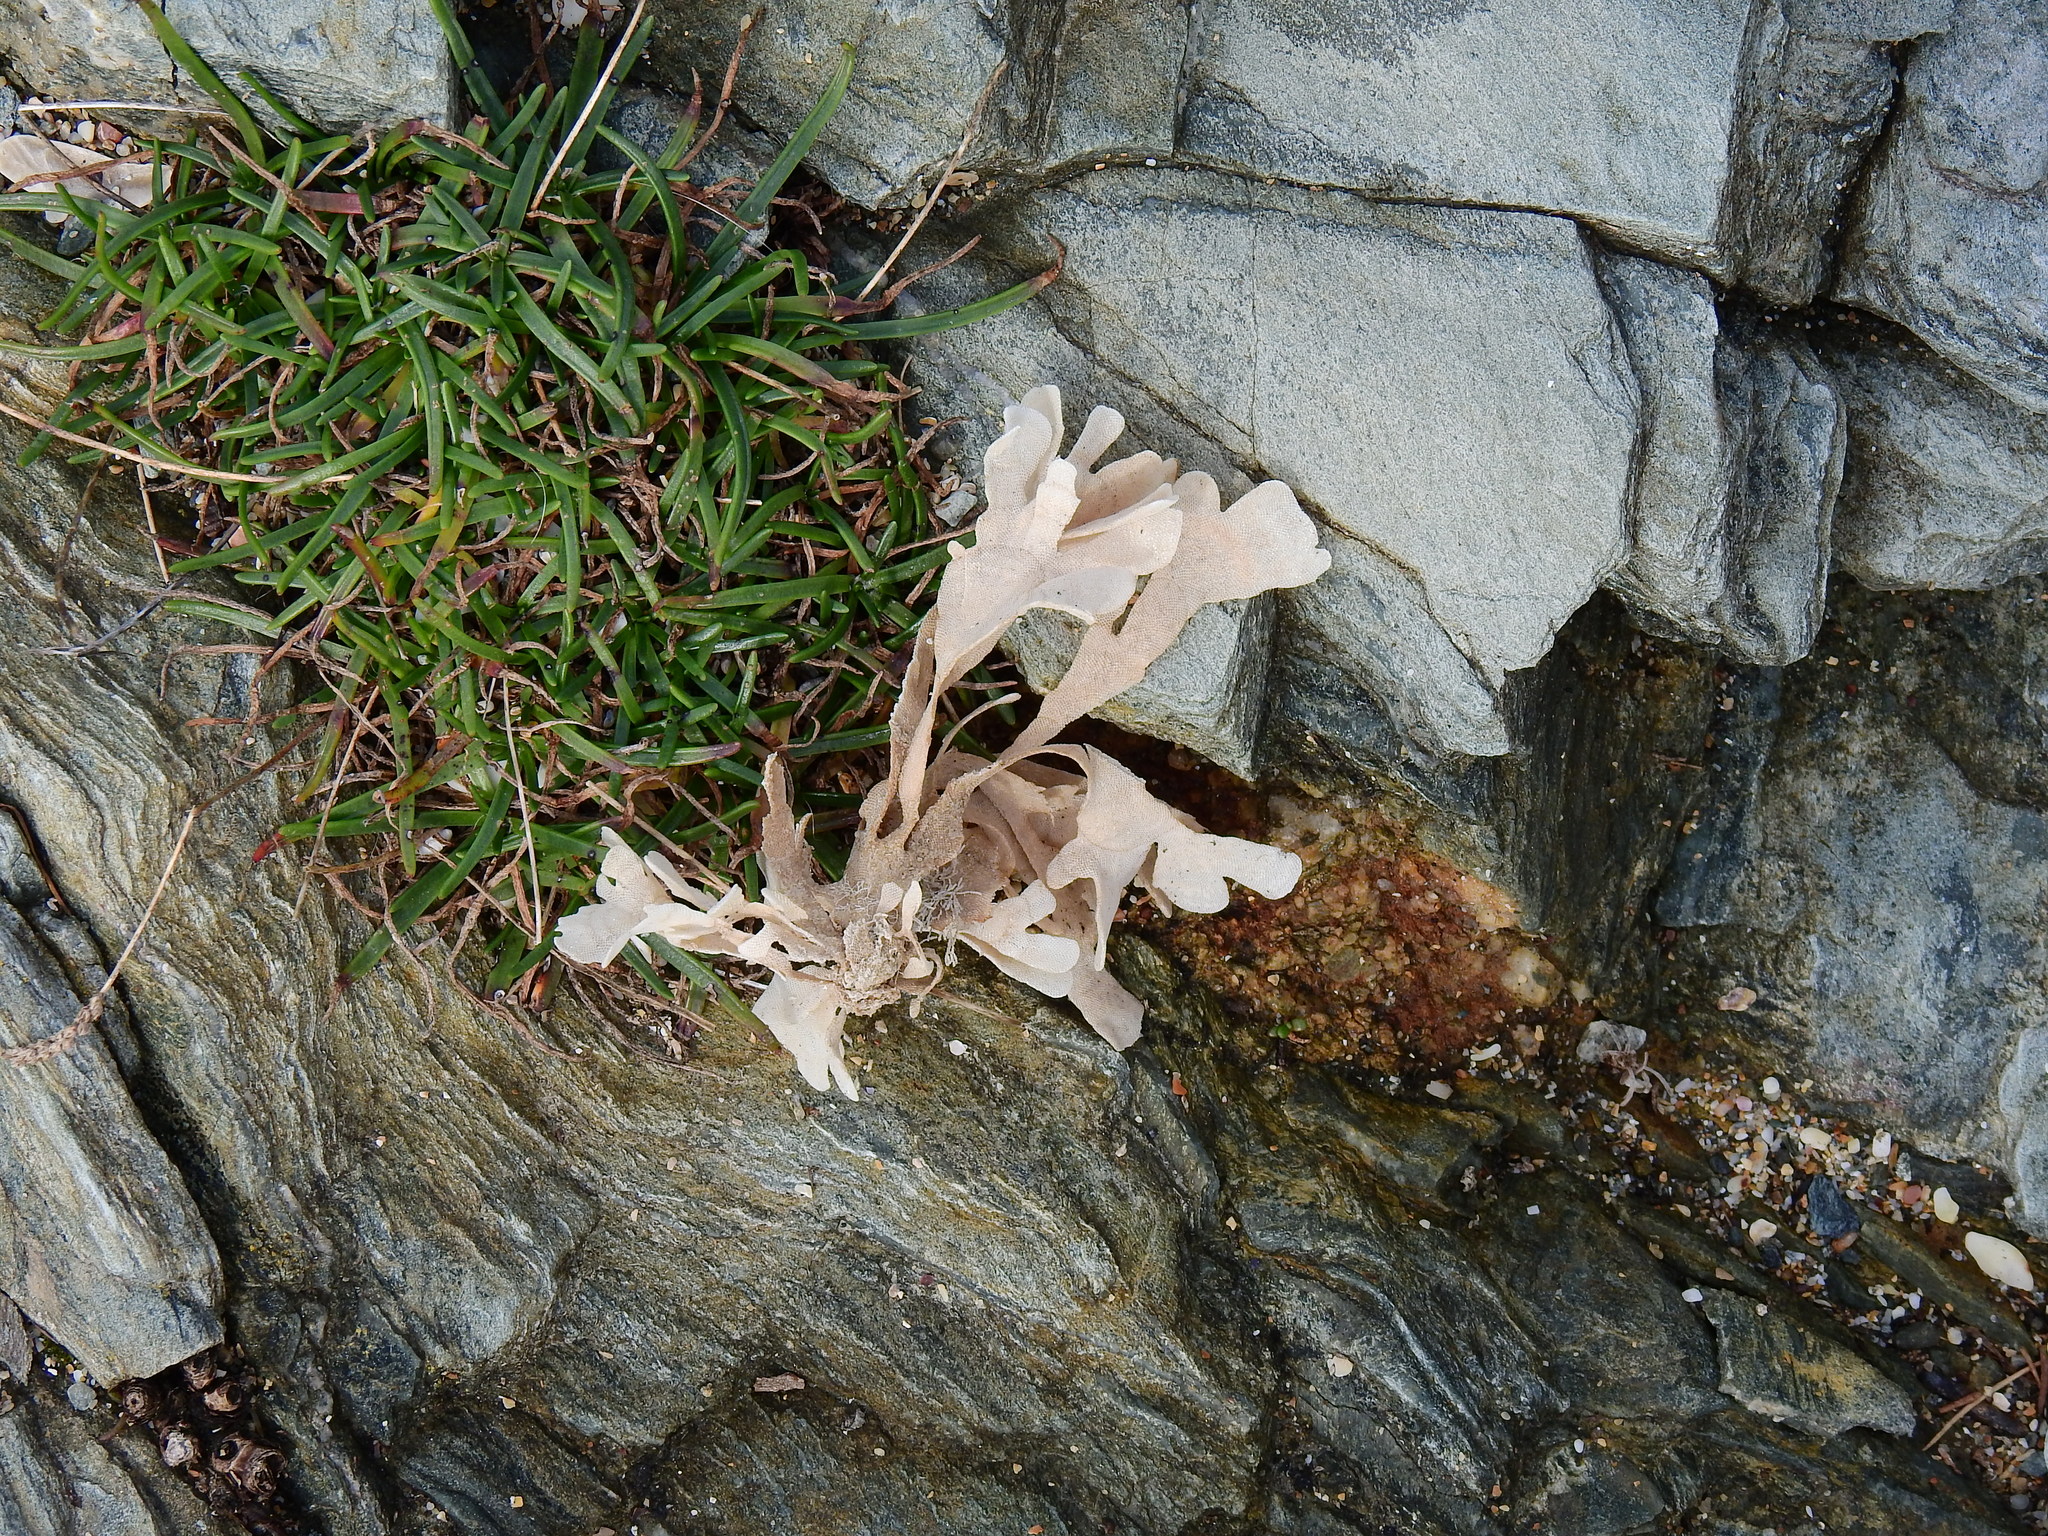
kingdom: Animalia
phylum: Bryozoa
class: Gymnolaemata
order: Cheilostomatida
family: Flustridae
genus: Flustra
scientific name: Flustra foliacea
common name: Hornwrack
